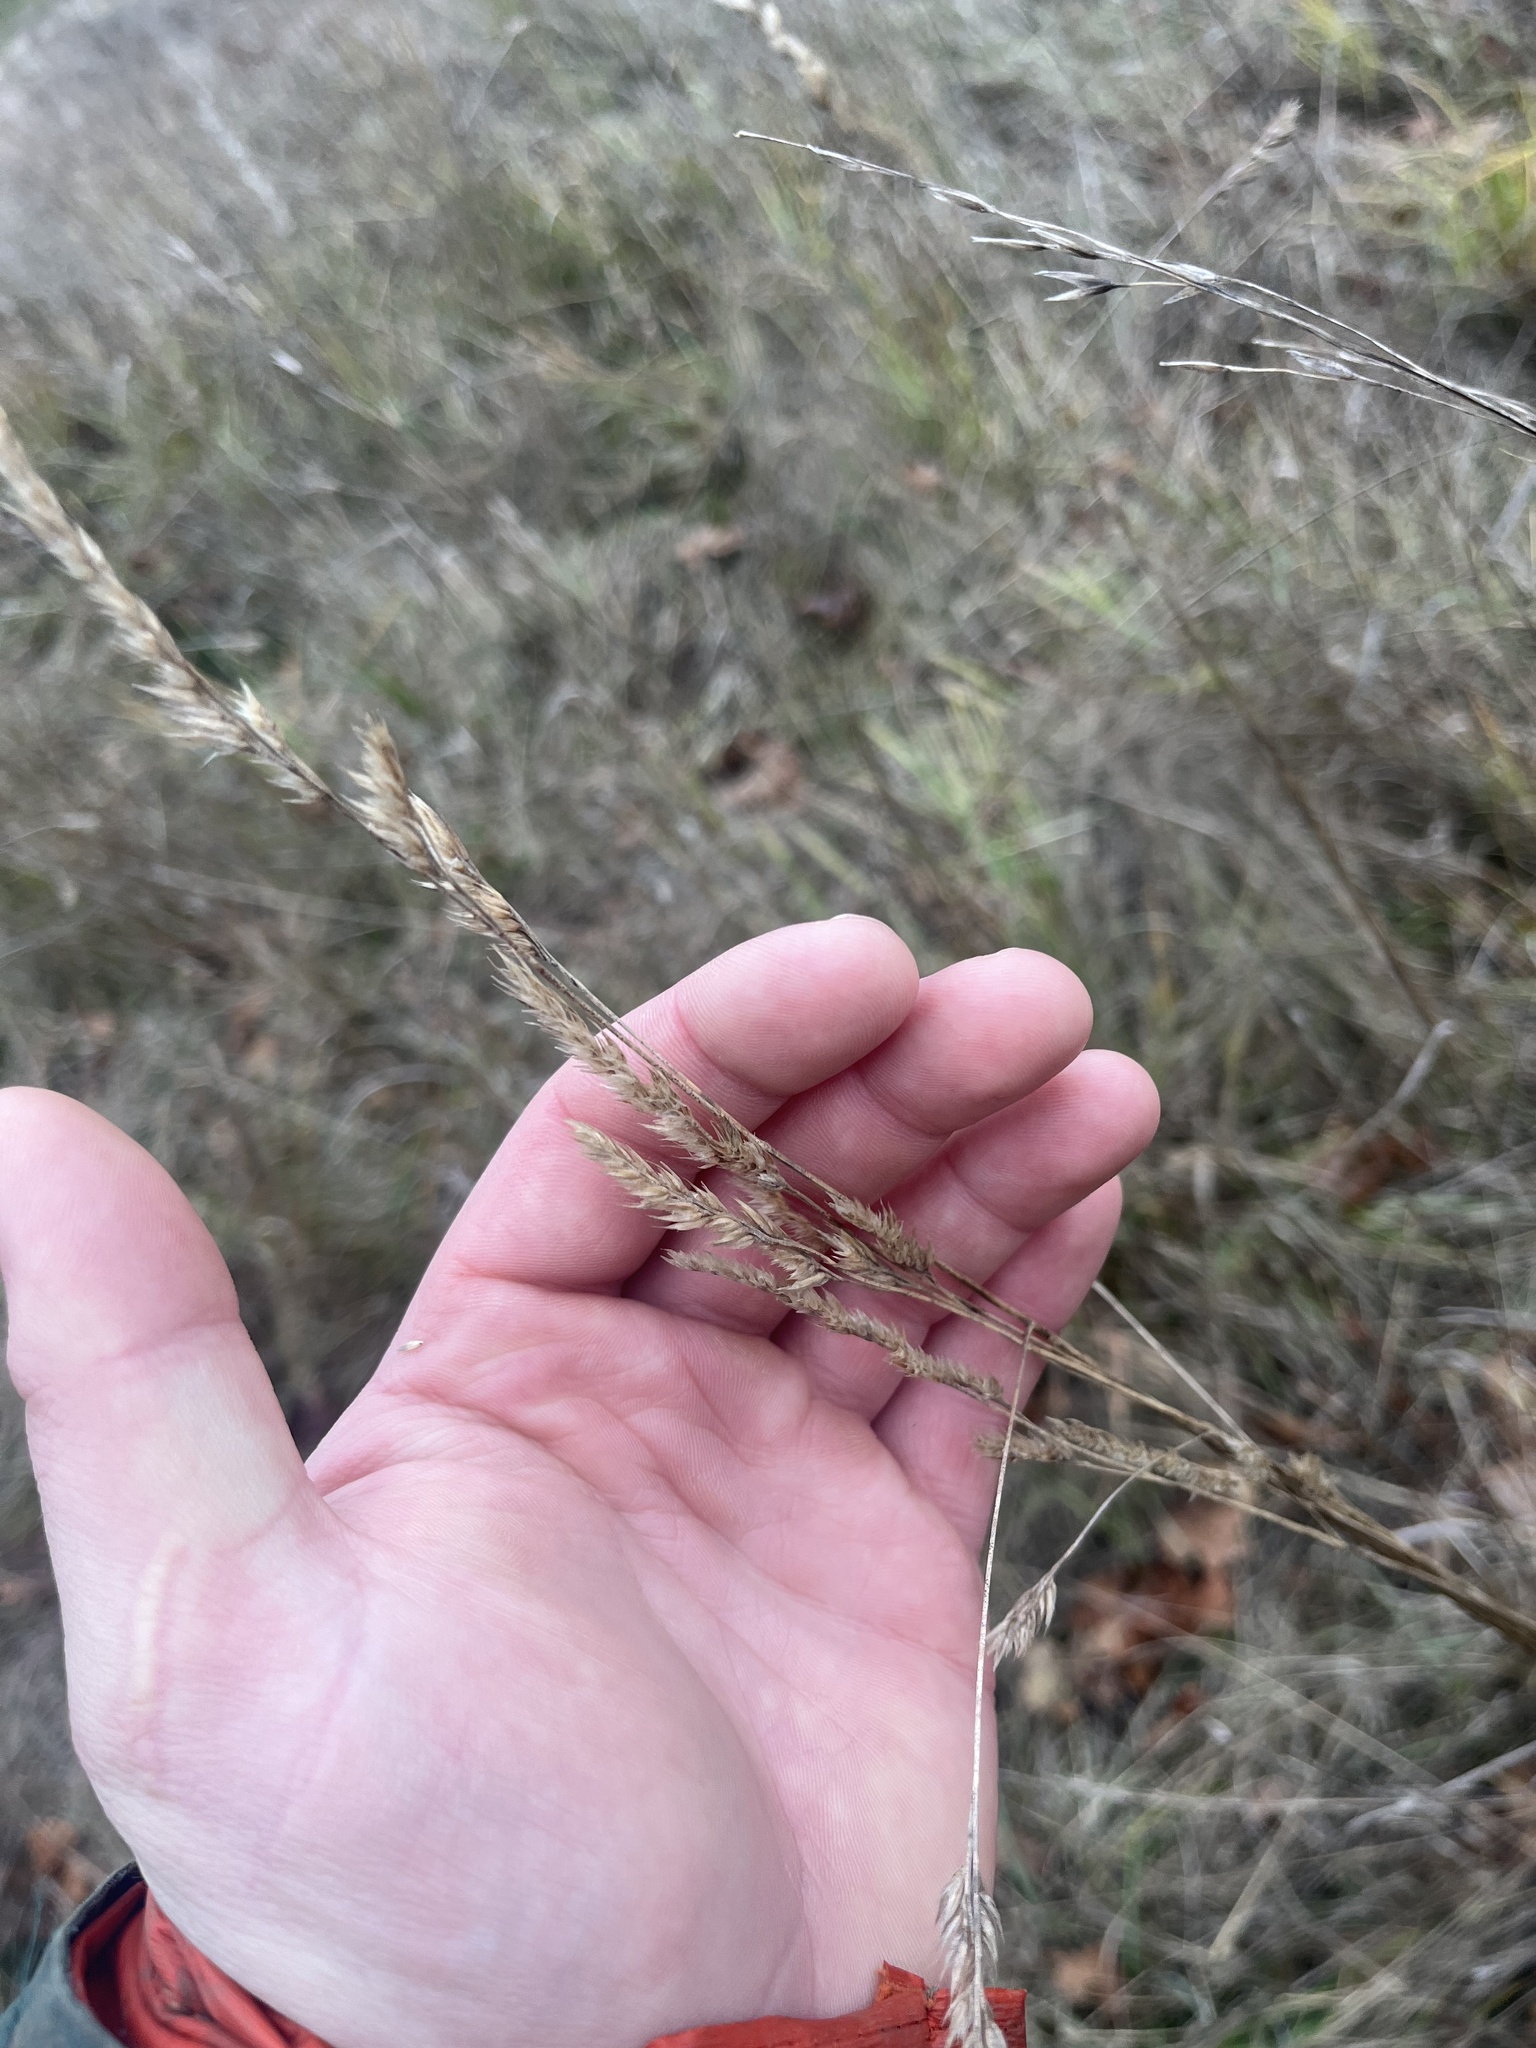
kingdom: Plantae
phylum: Tracheophyta
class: Liliopsida
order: Poales
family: Poaceae
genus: Dactylis
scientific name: Dactylis glomerata
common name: Orchardgrass
